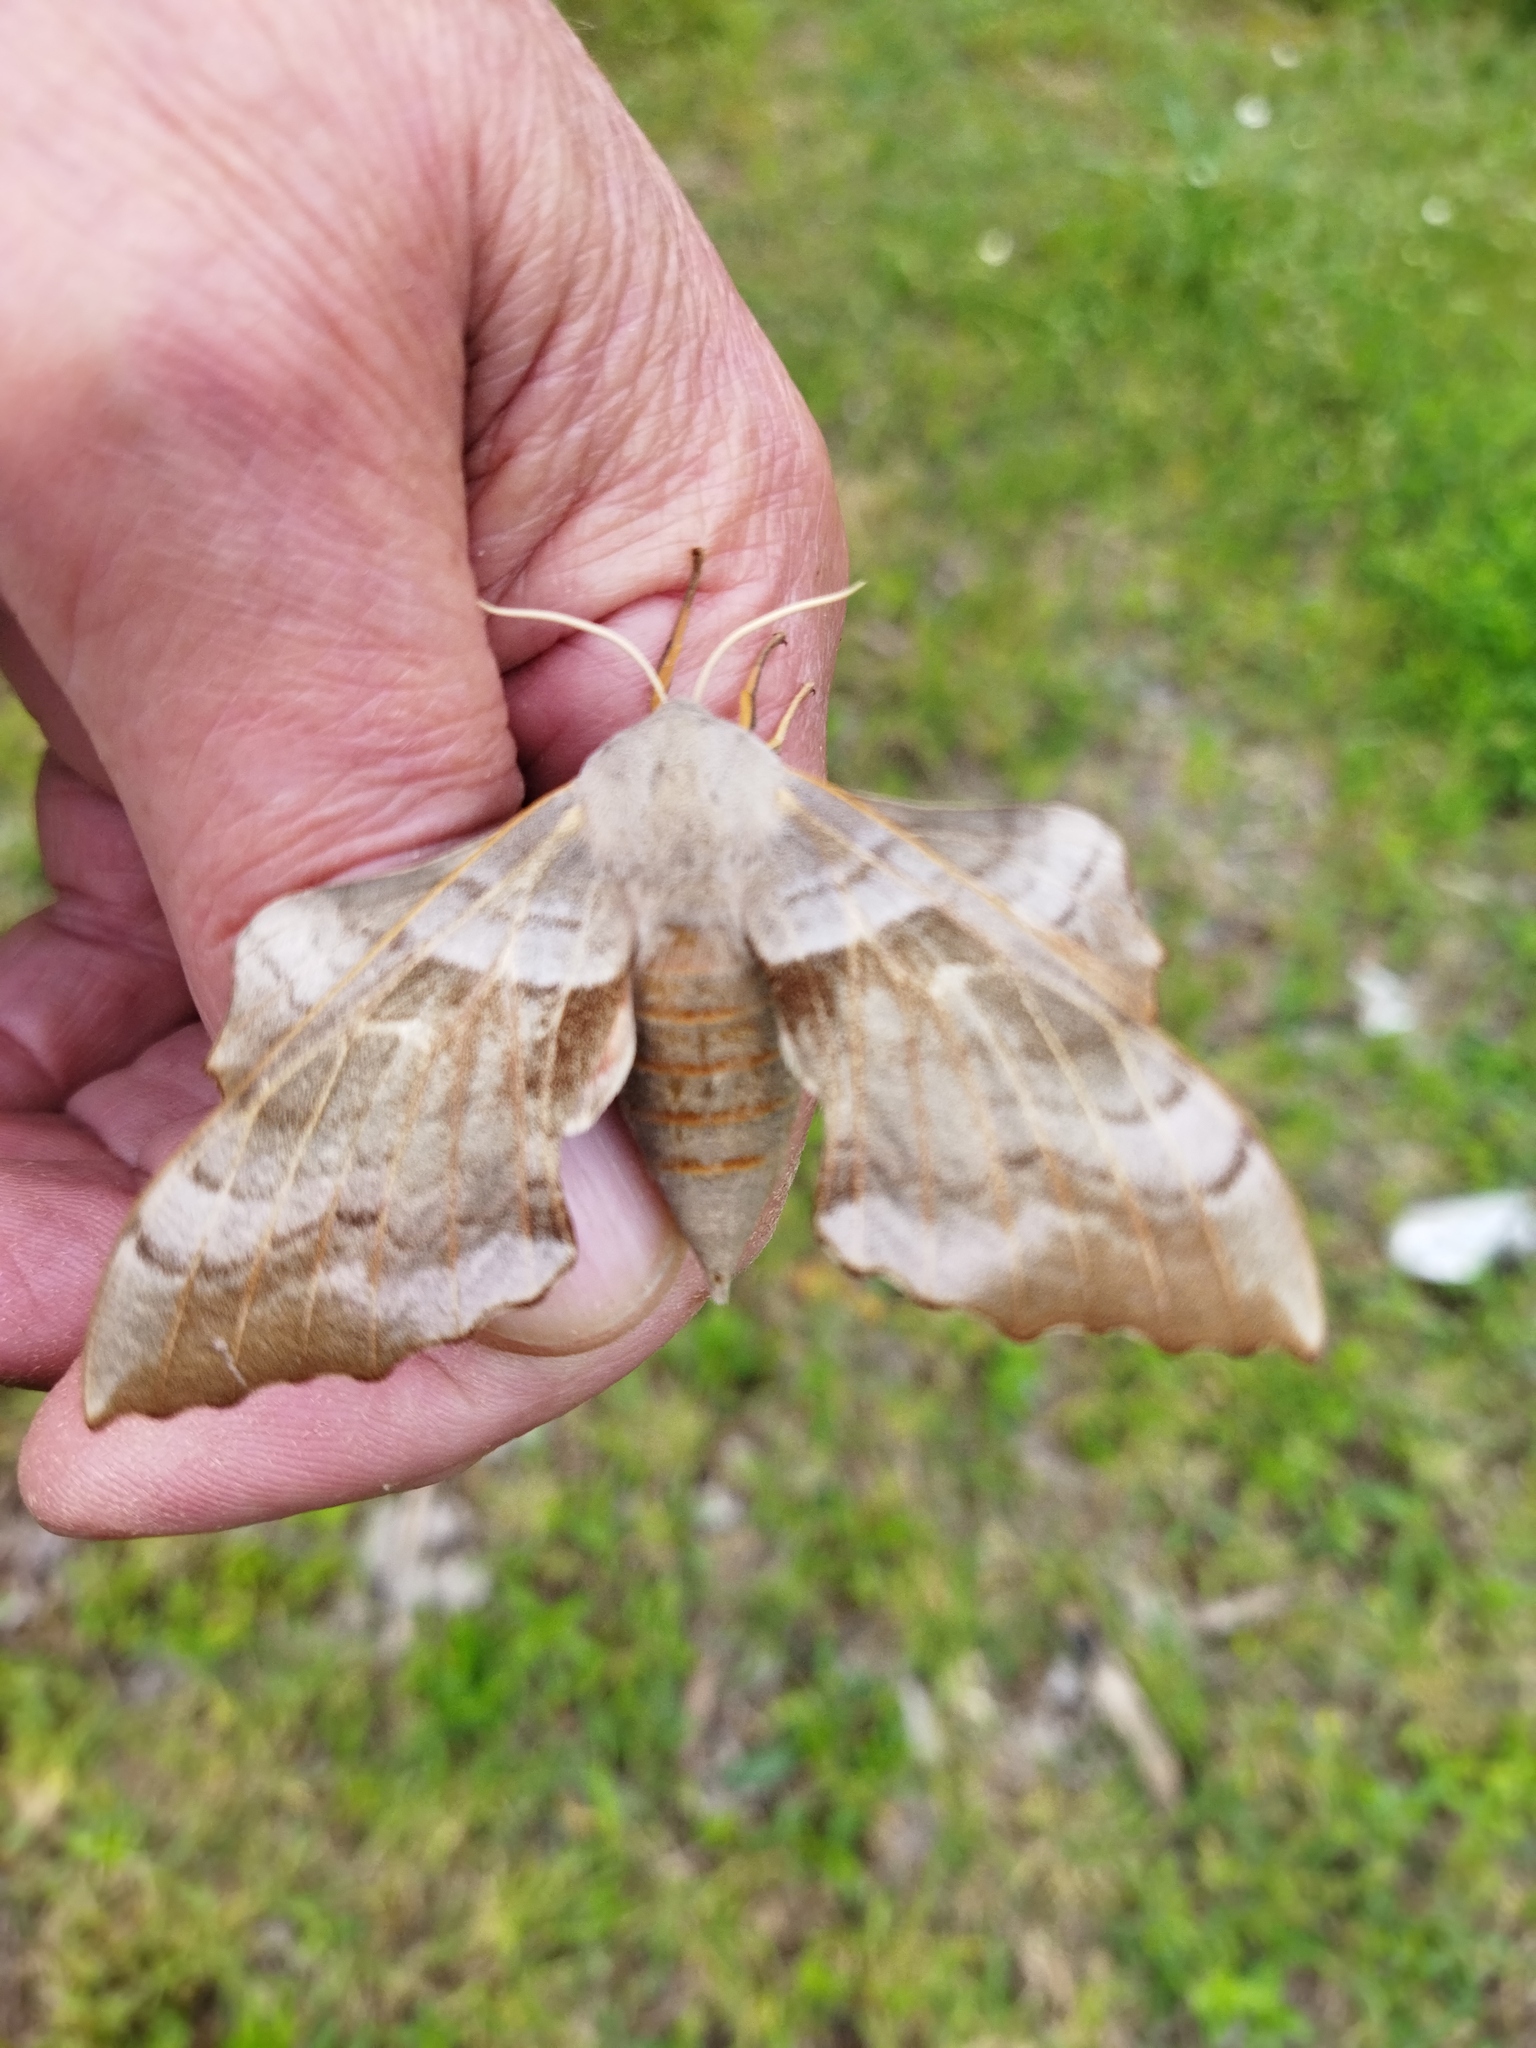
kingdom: Animalia
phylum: Arthropoda
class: Insecta
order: Lepidoptera
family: Sphingidae
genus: Laothoe
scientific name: Laothoe populi
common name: Poplar hawk-moth
